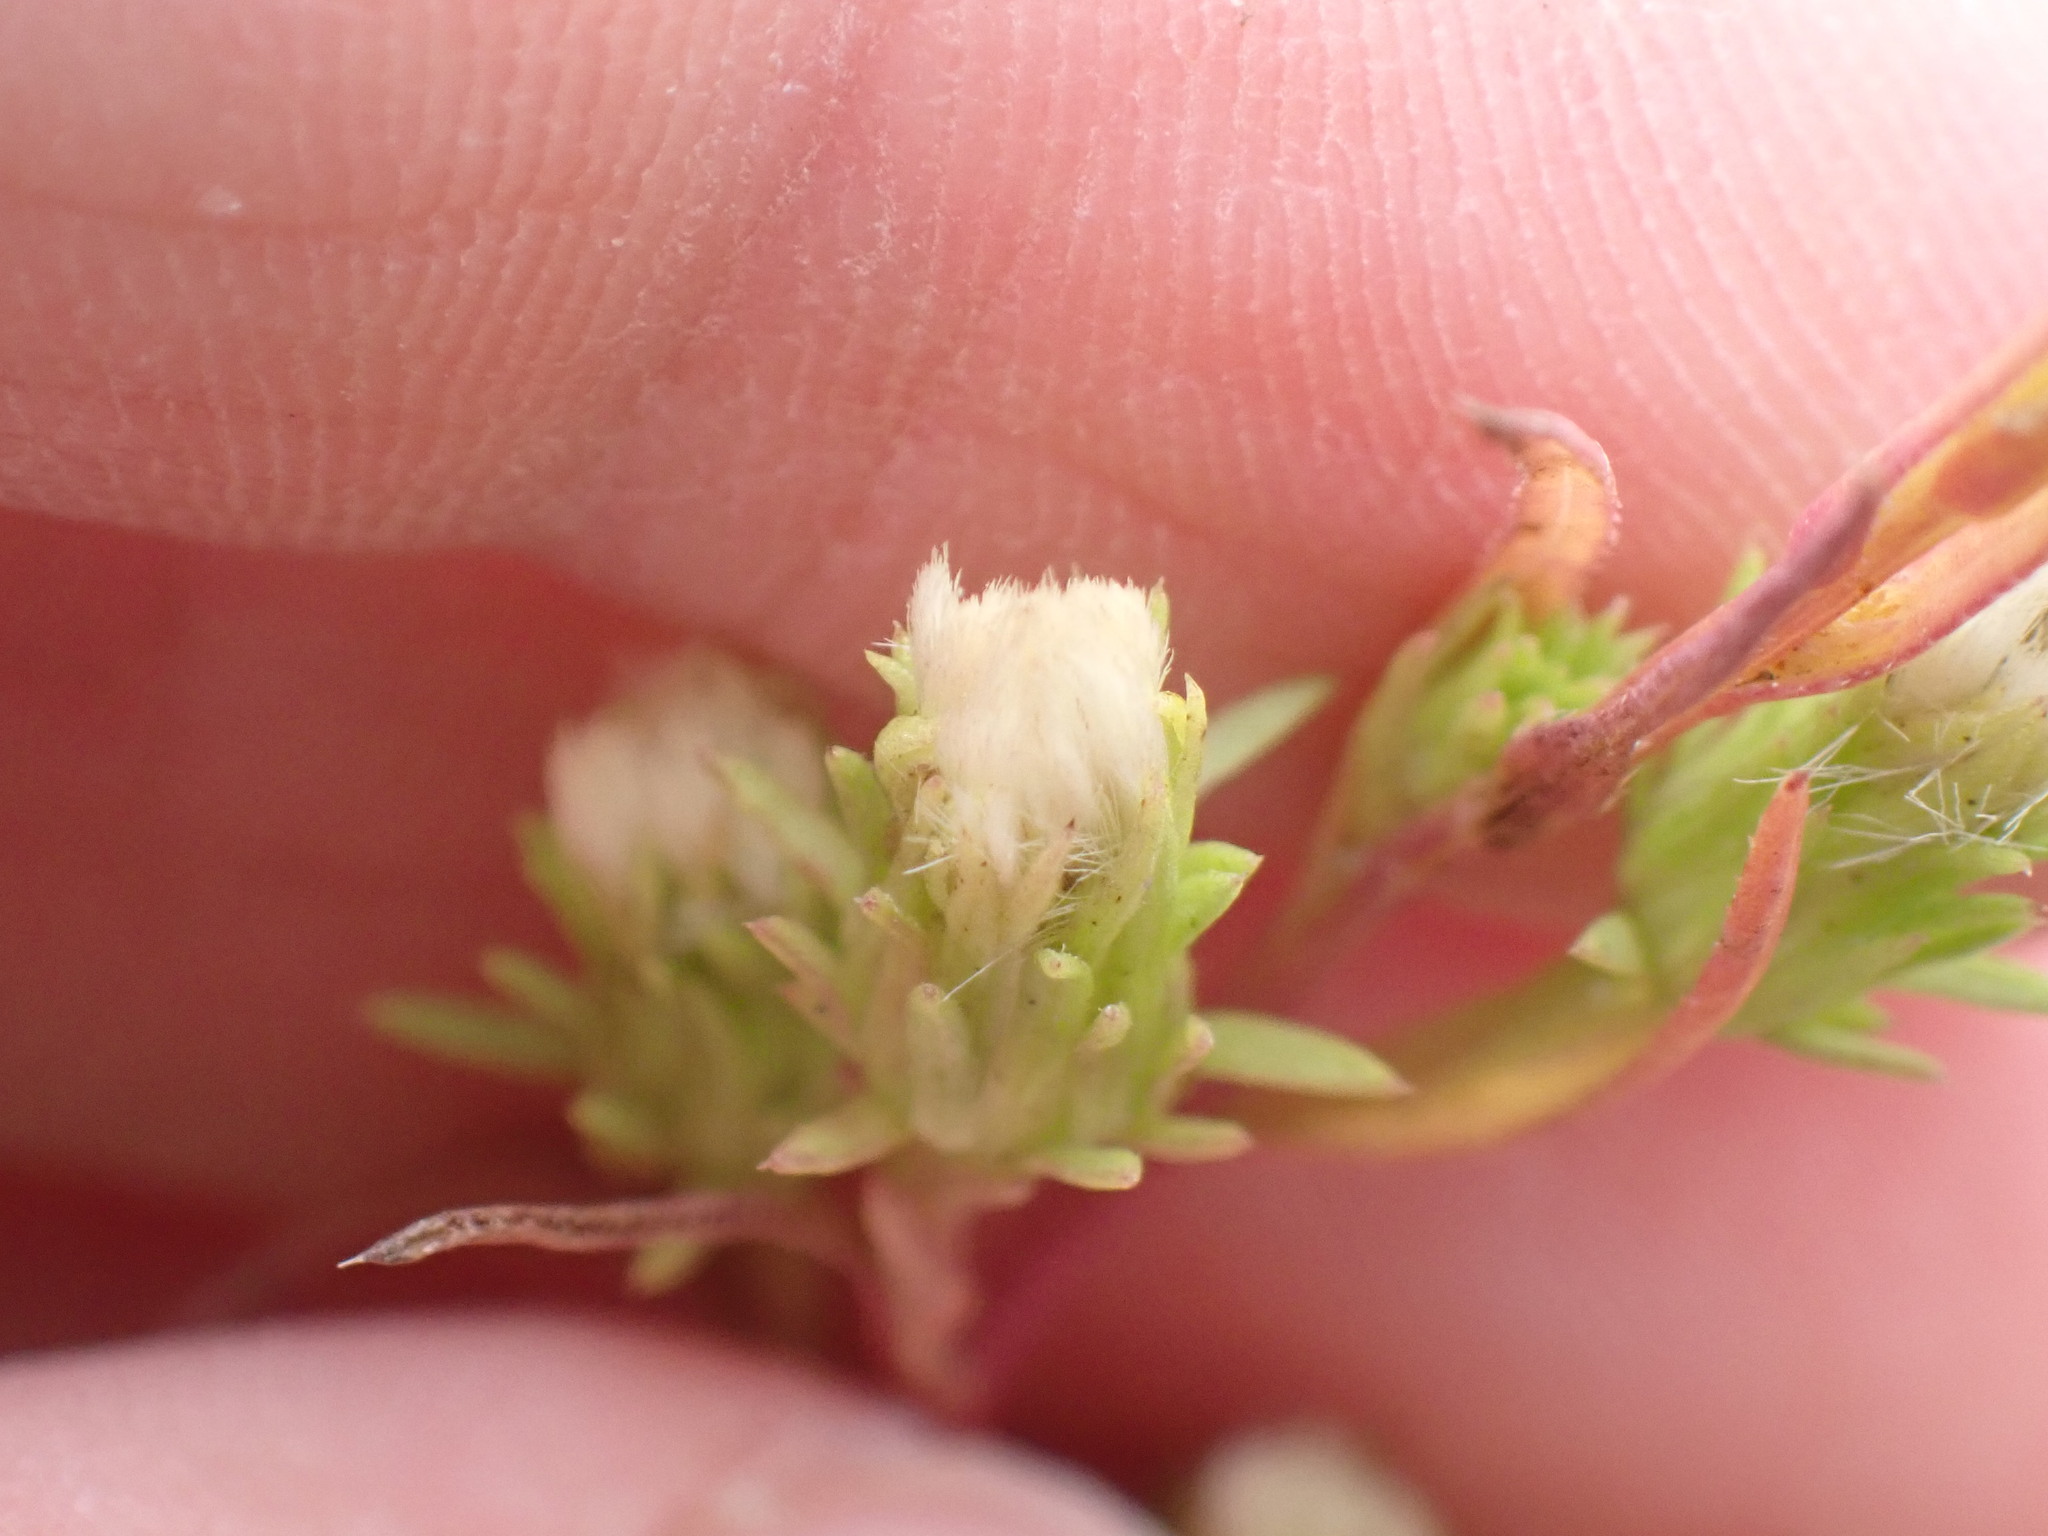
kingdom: Plantae
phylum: Tracheophyta
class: Magnoliopsida
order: Asterales
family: Asteraceae
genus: Symphyotrichum
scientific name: Symphyotrichum ciliatum
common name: Rayless annual aster
